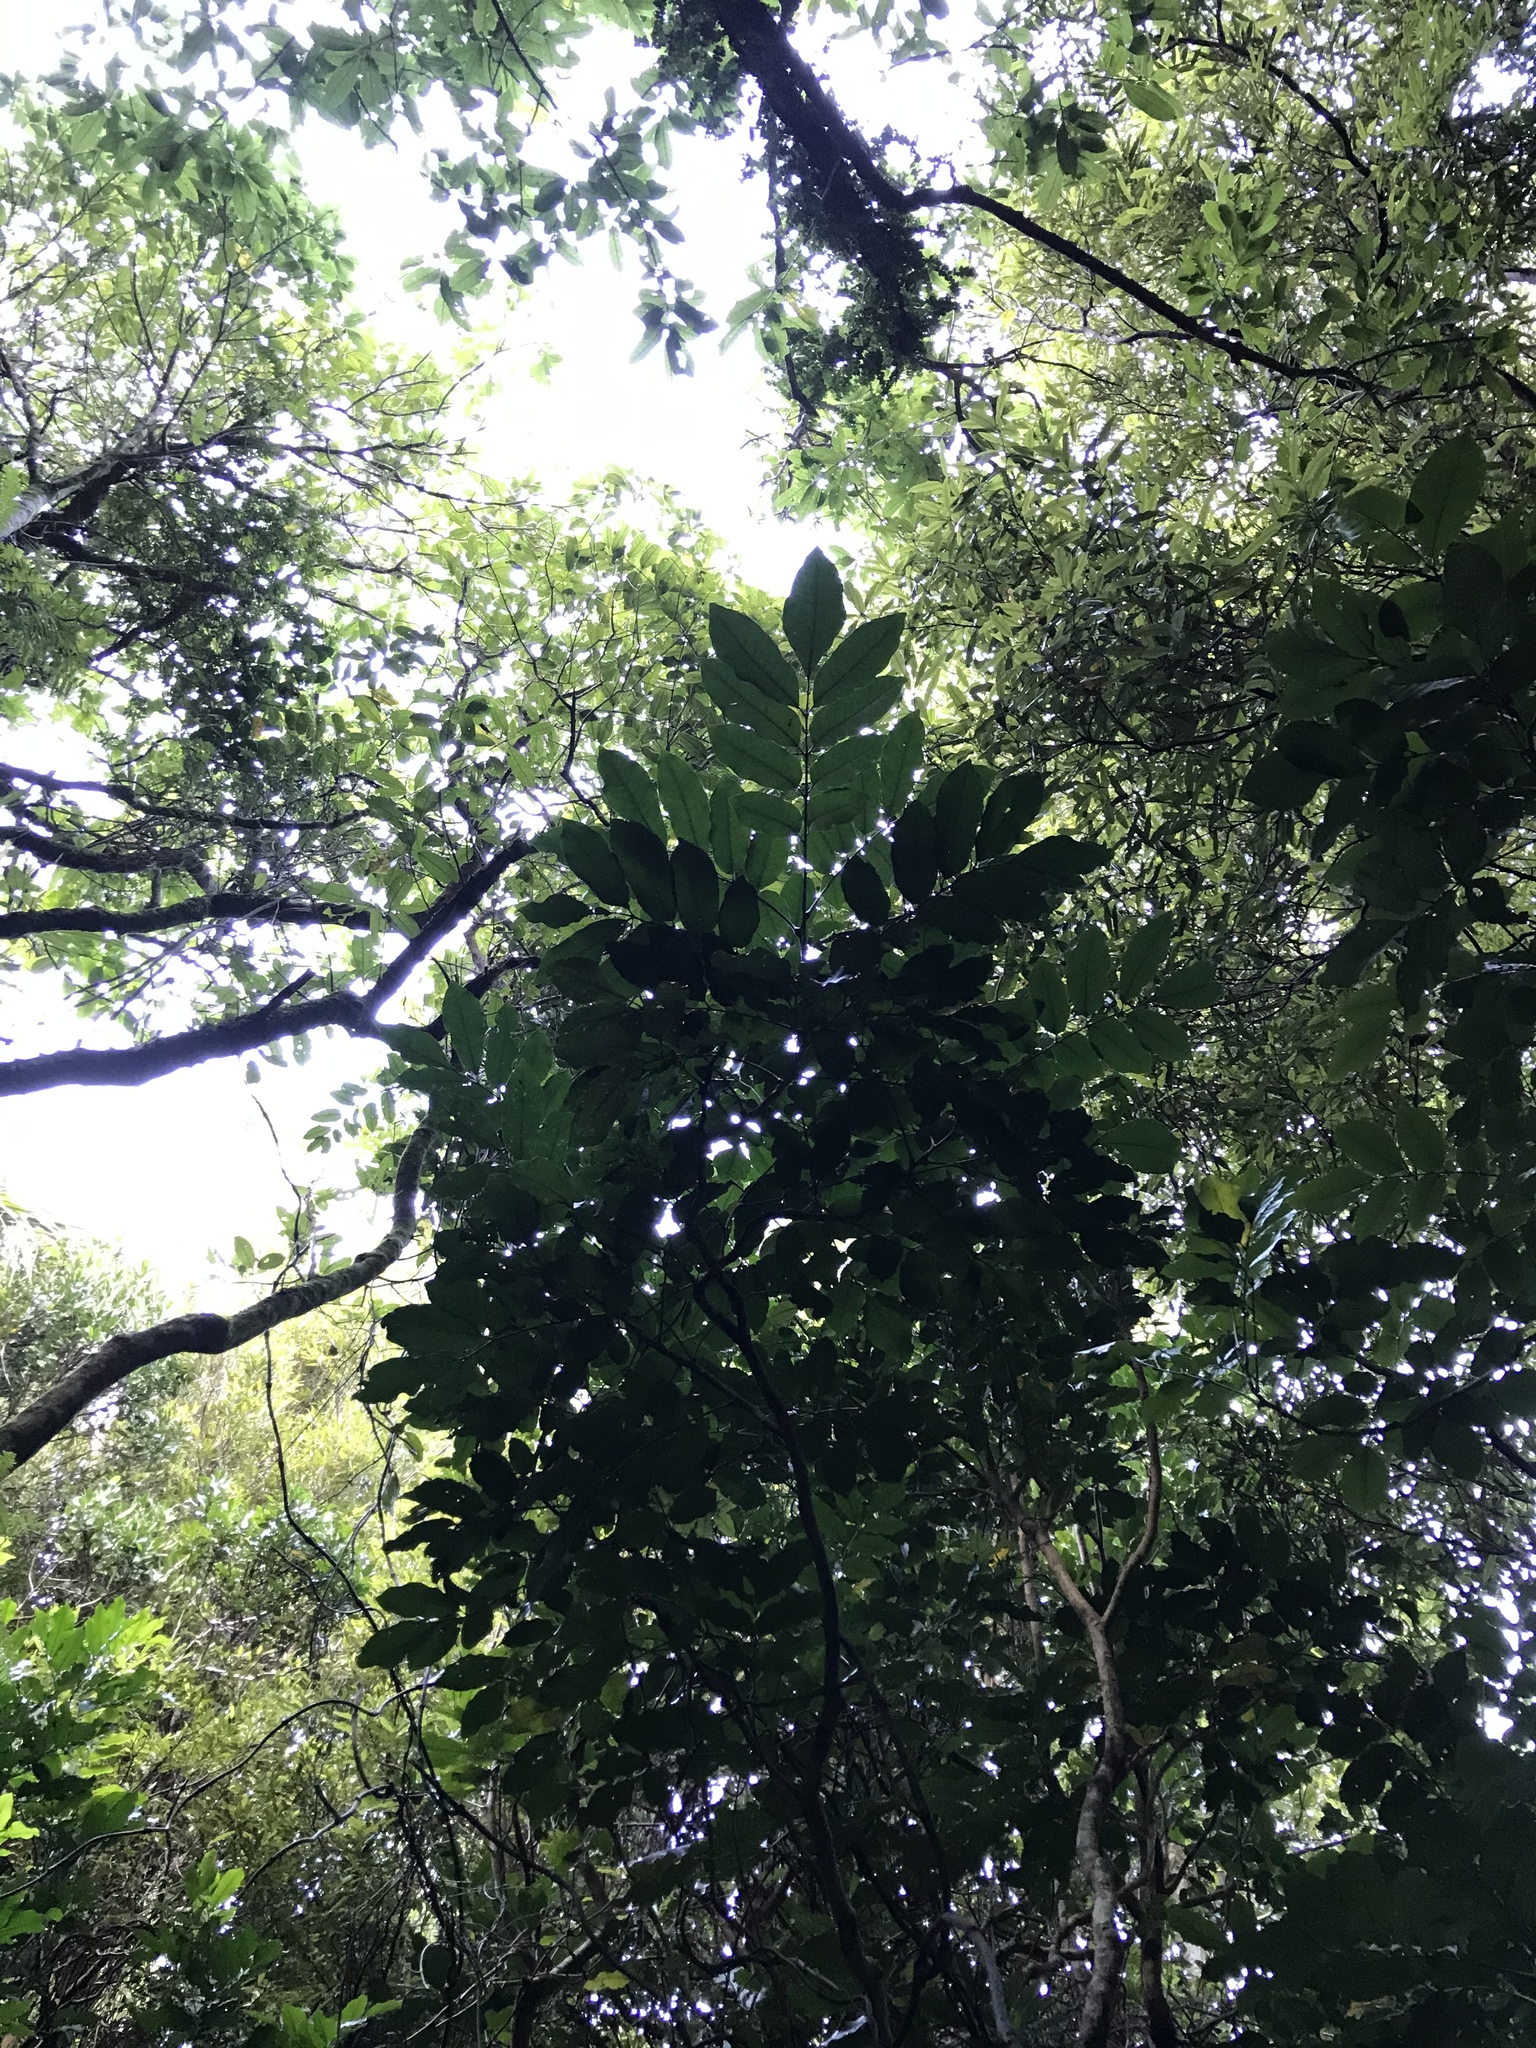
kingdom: Plantae
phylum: Tracheophyta
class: Magnoliopsida
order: Sapindales
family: Meliaceae
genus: Didymocheton
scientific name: Didymocheton spectabilis
